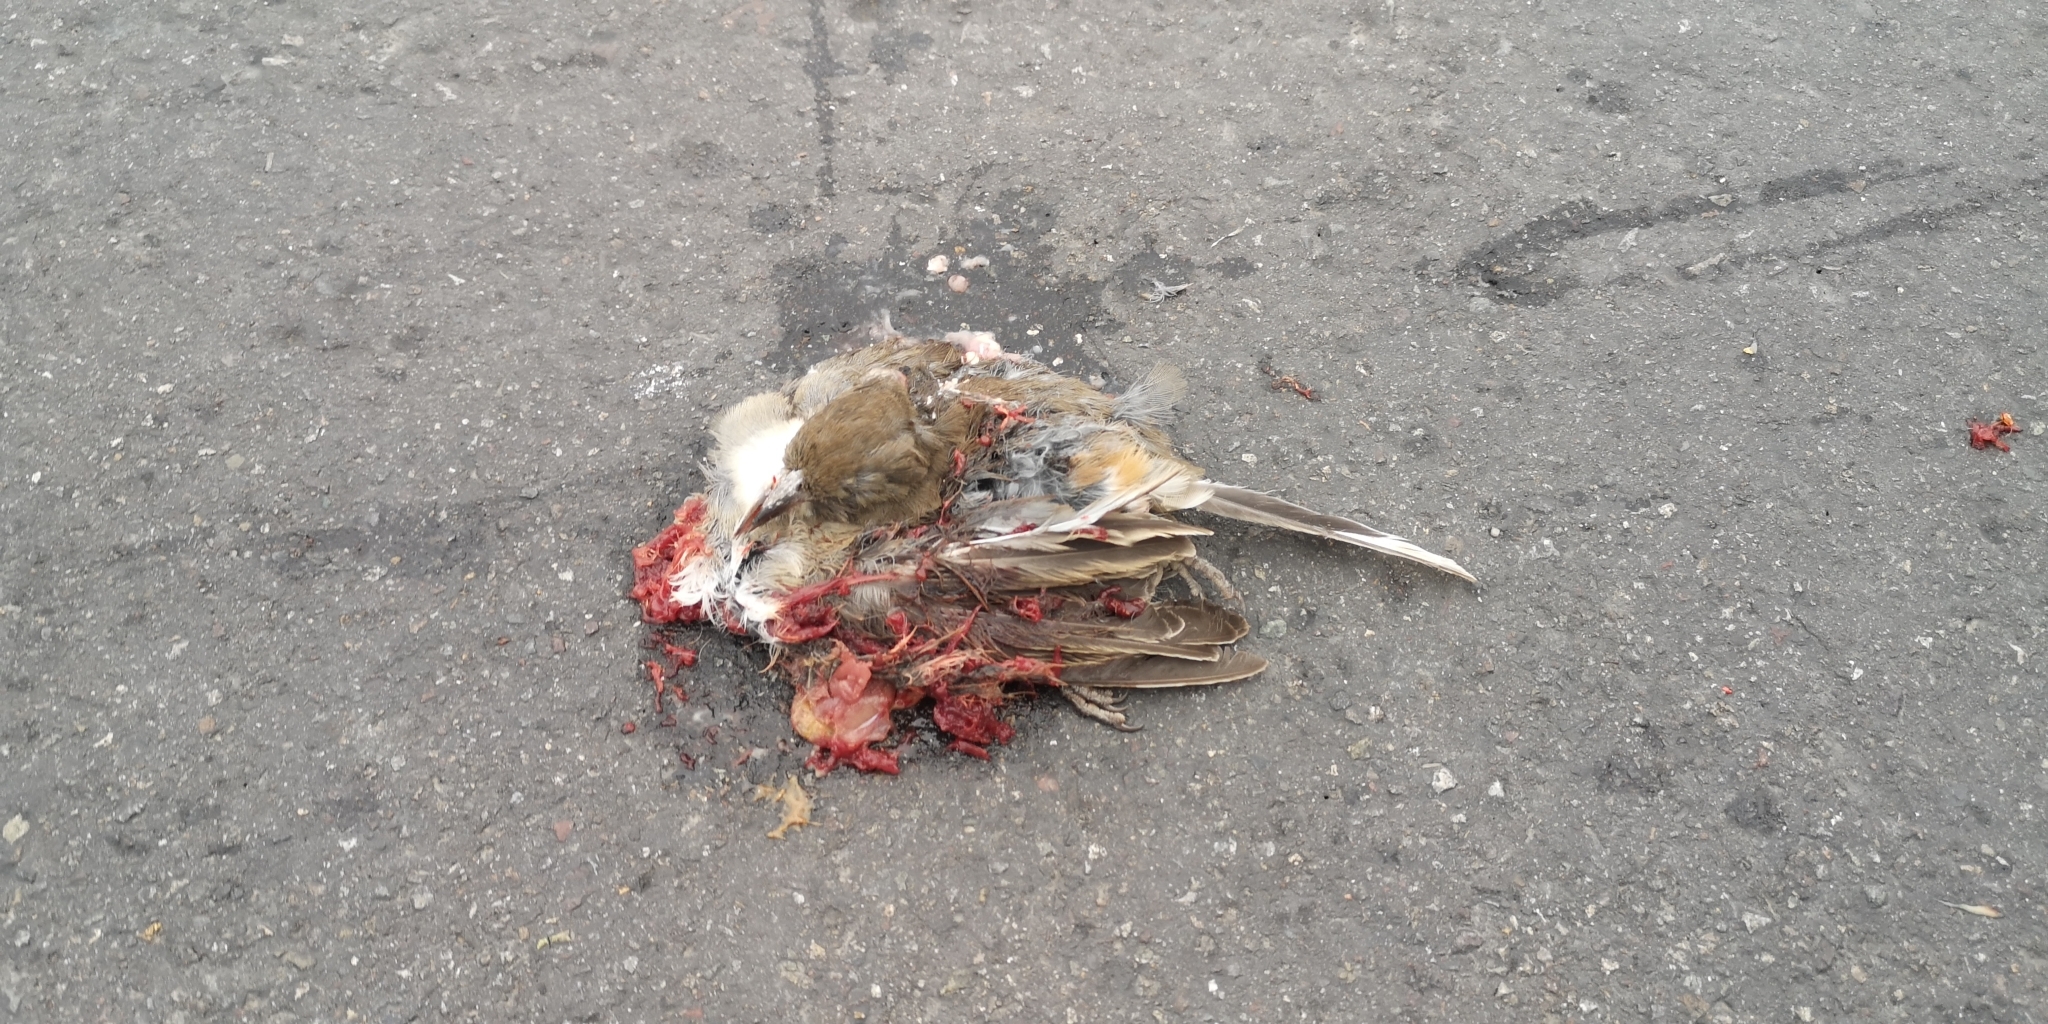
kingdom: Animalia
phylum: Chordata
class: Aves
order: Passeriformes
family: Passeridae
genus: Passer
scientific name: Passer domesticus
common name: House sparrow
